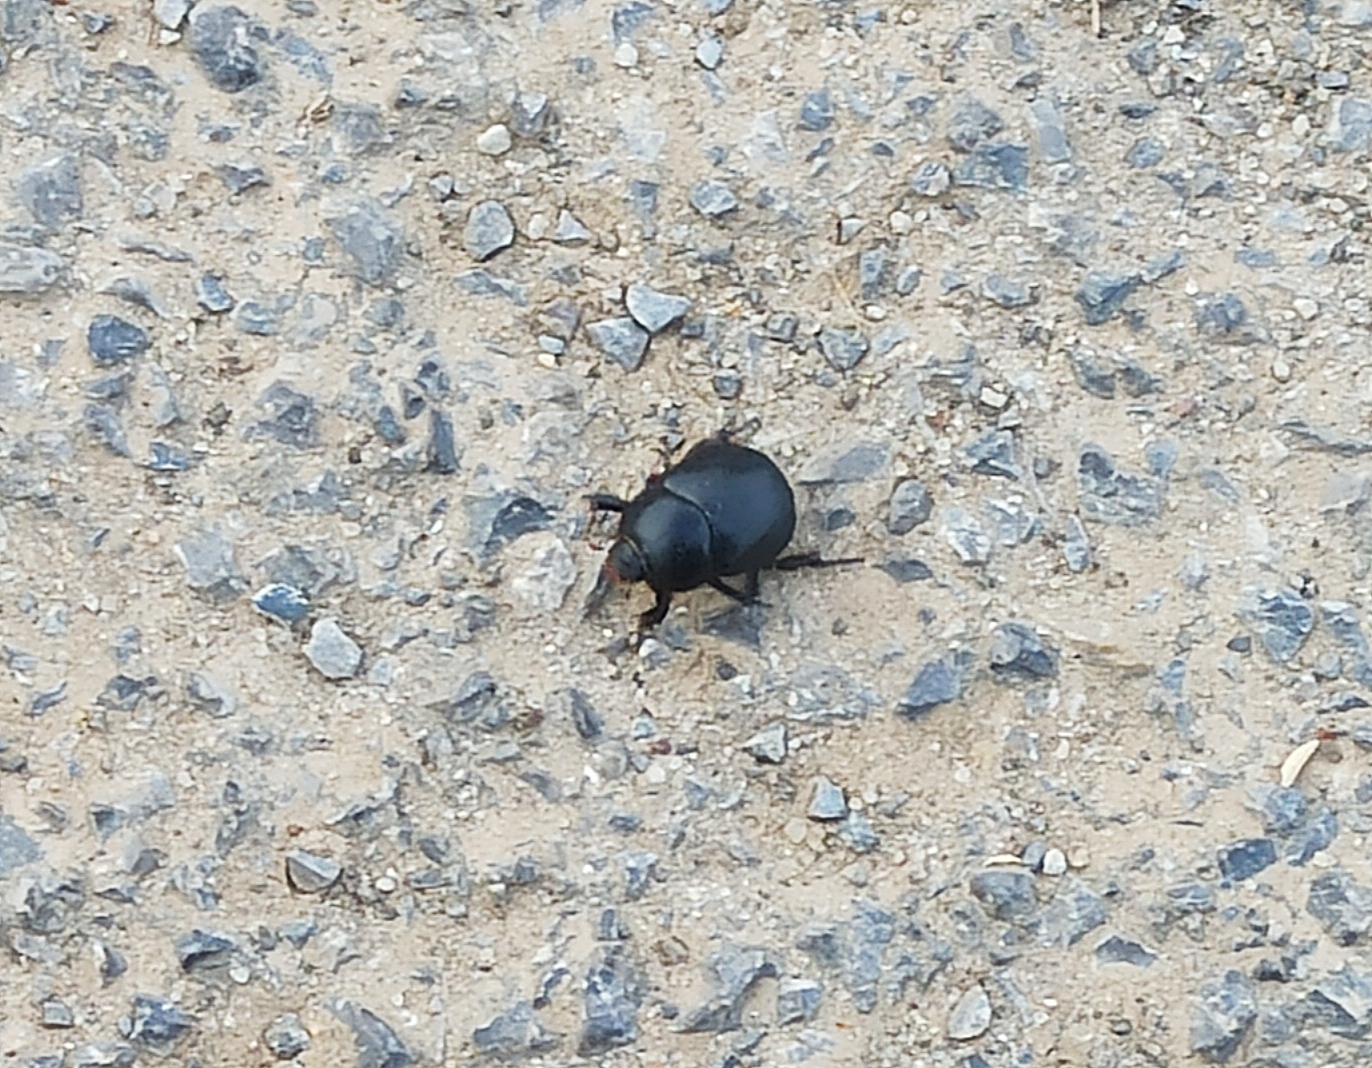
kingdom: Animalia
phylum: Arthropoda
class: Insecta
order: Coleoptera
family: Scarabaeidae
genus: Pentodon
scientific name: Pentodon idiota
